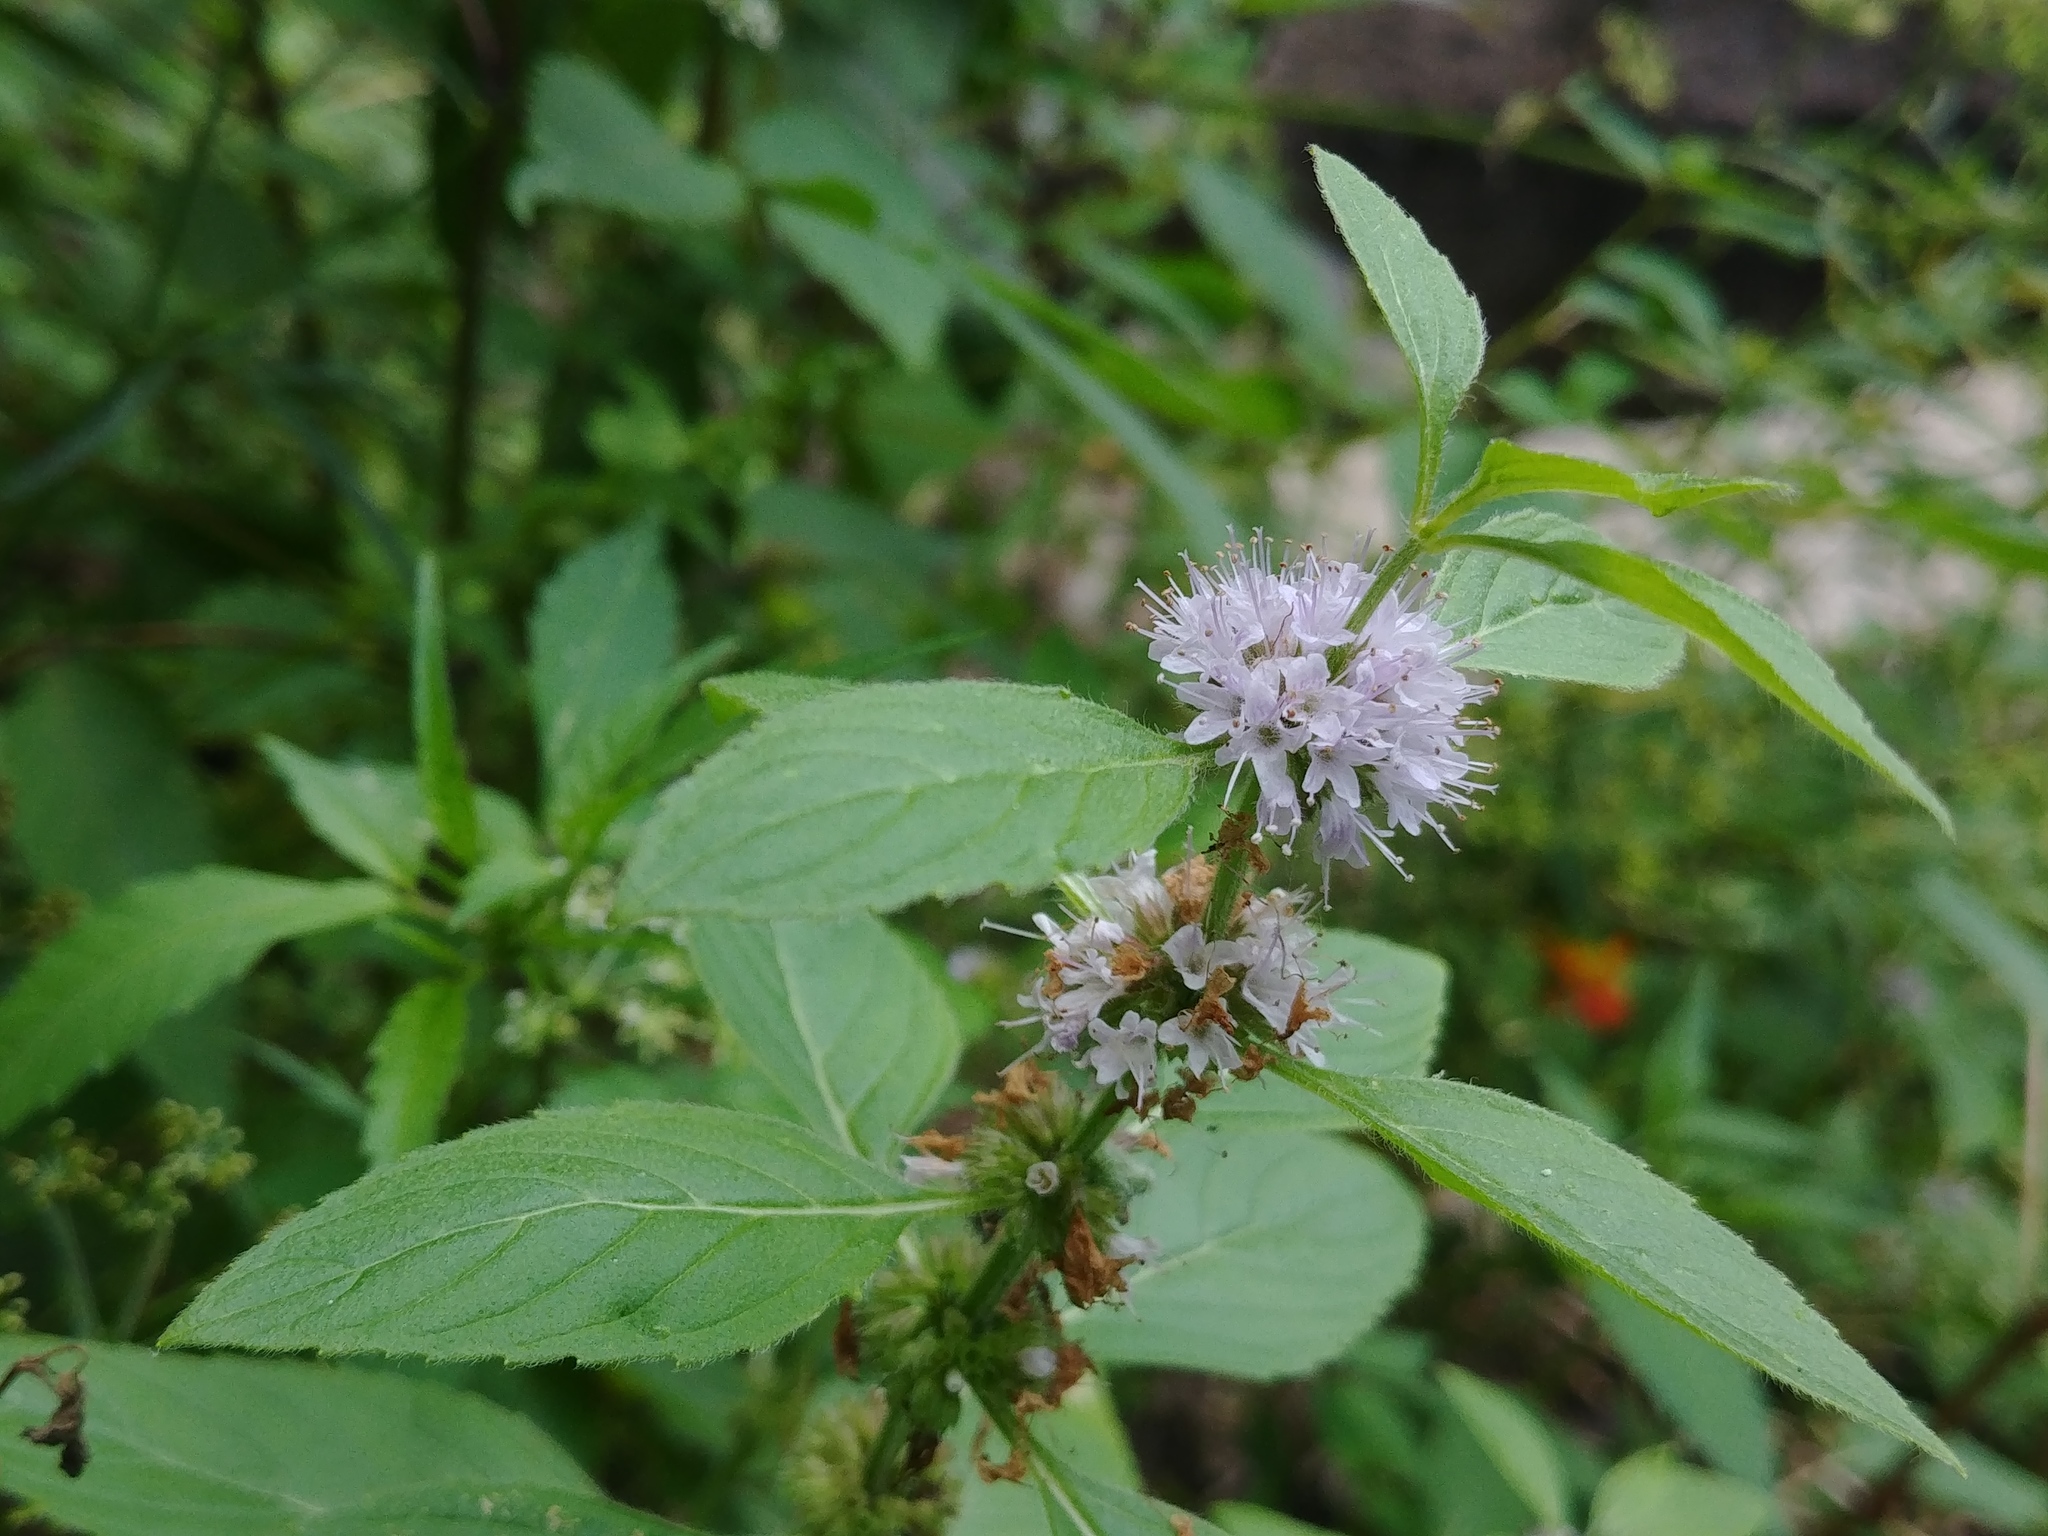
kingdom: Plantae
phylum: Tracheophyta
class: Magnoliopsida
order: Lamiales
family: Lamiaceae
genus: Mentha
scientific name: Mentha canadensis
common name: American corn mint
